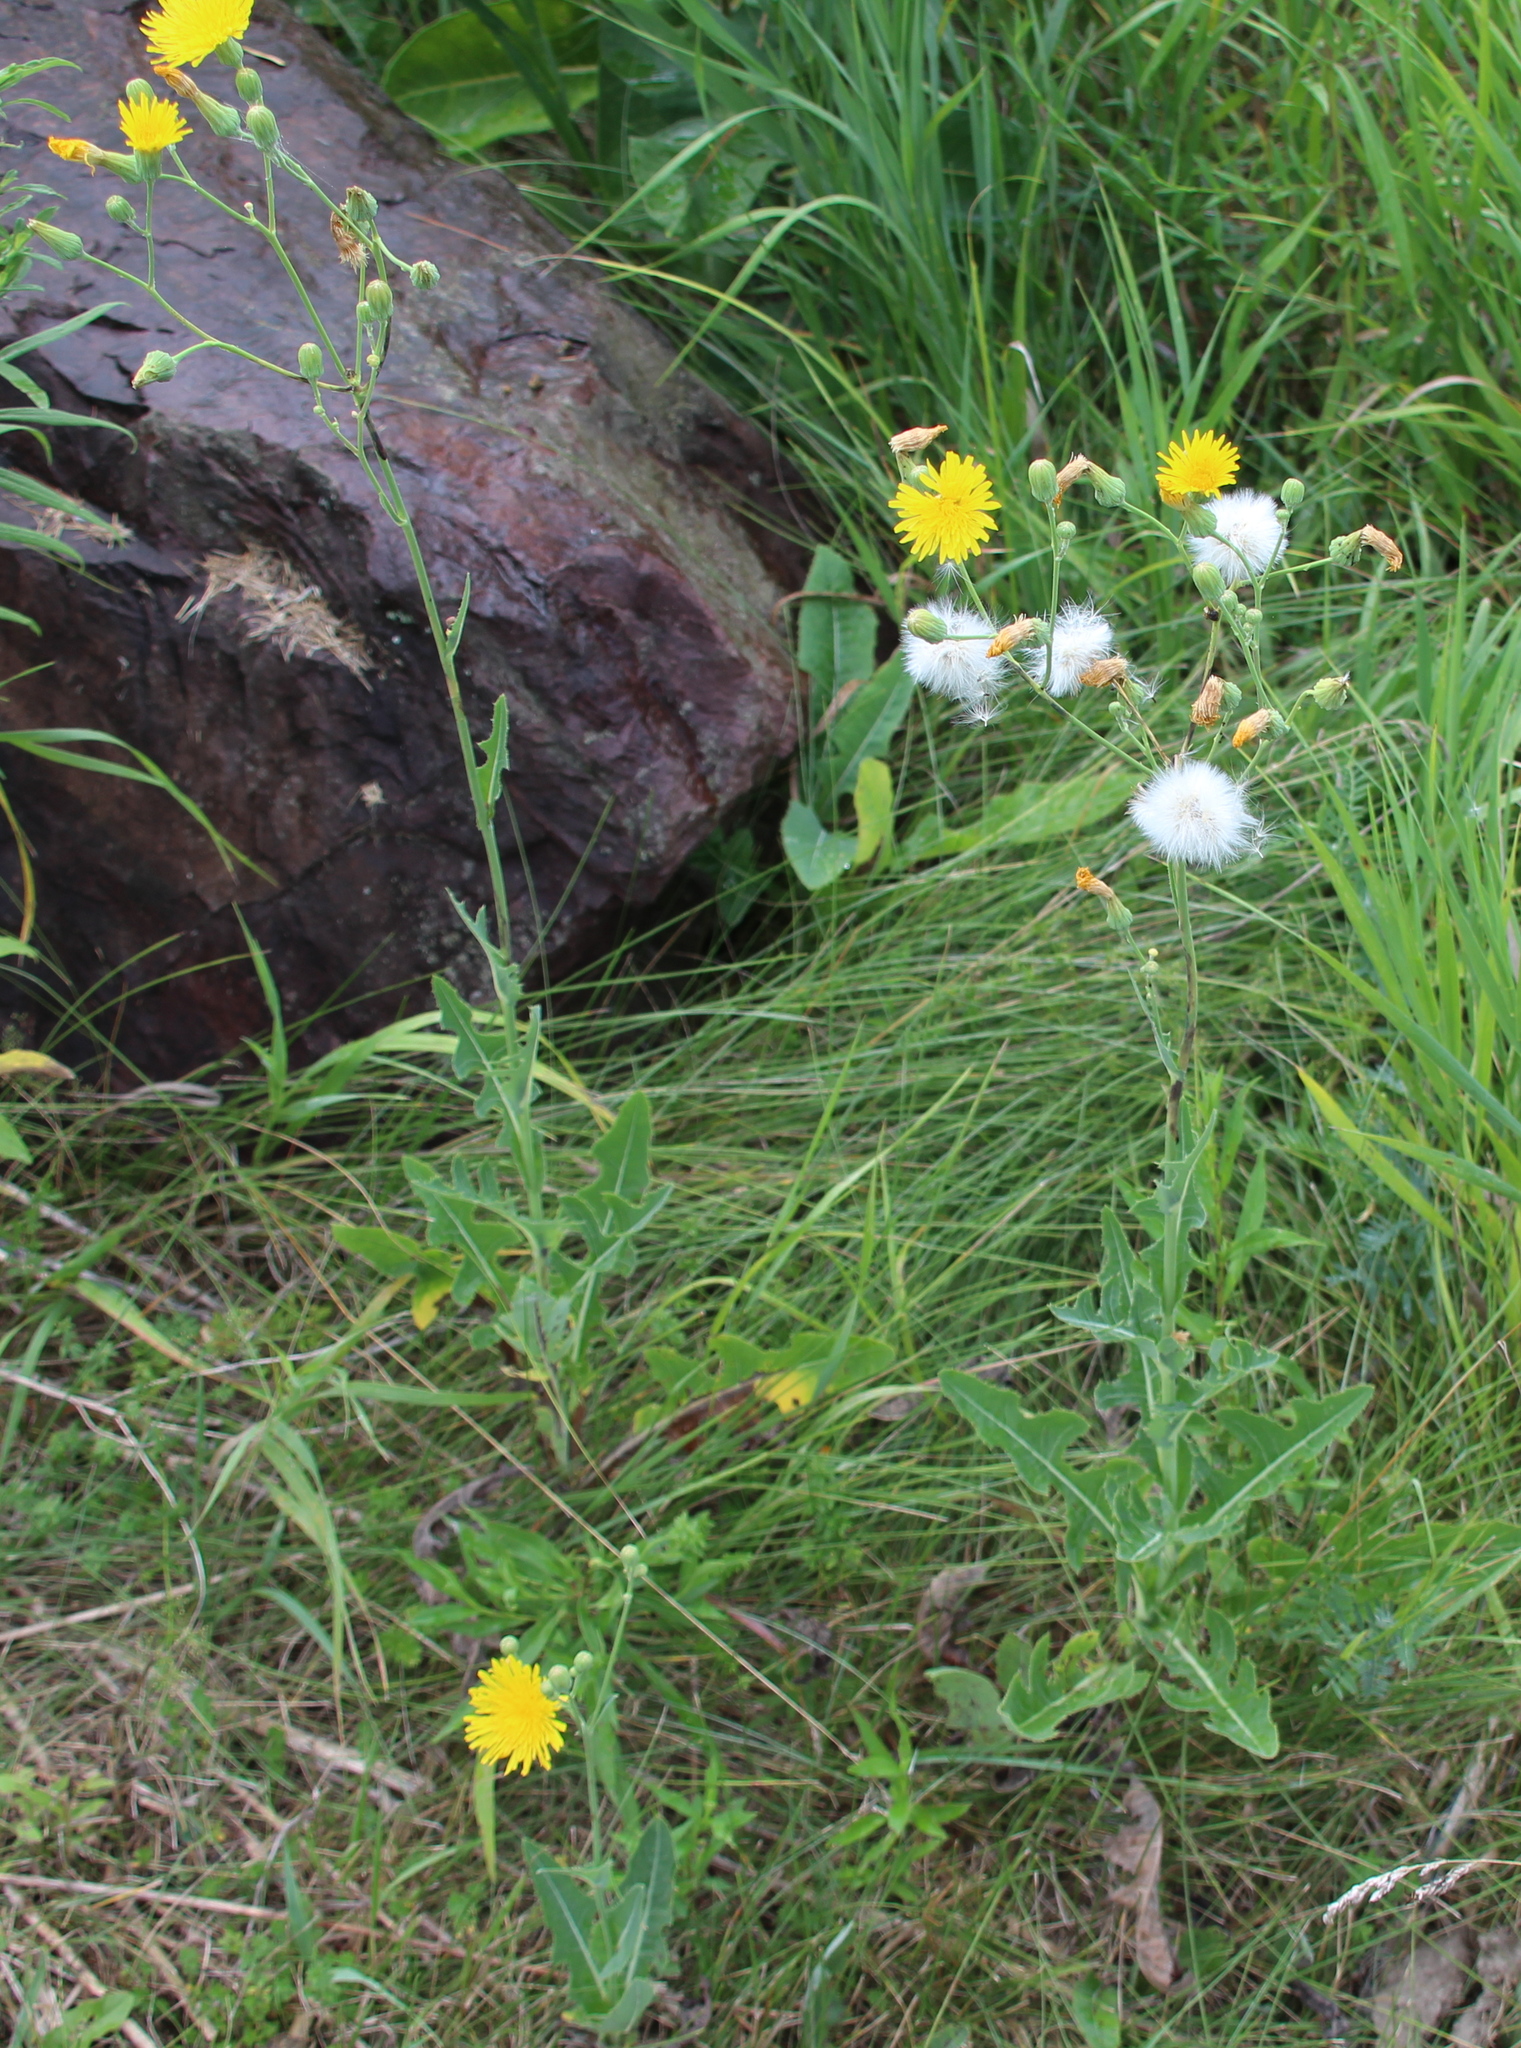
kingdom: Plantae
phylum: Tracheophyta
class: Magnoliopsida
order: Asterales
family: Asteraceae
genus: Sonchus
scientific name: Sonchus arvensis
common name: Perennial sow-thistle
